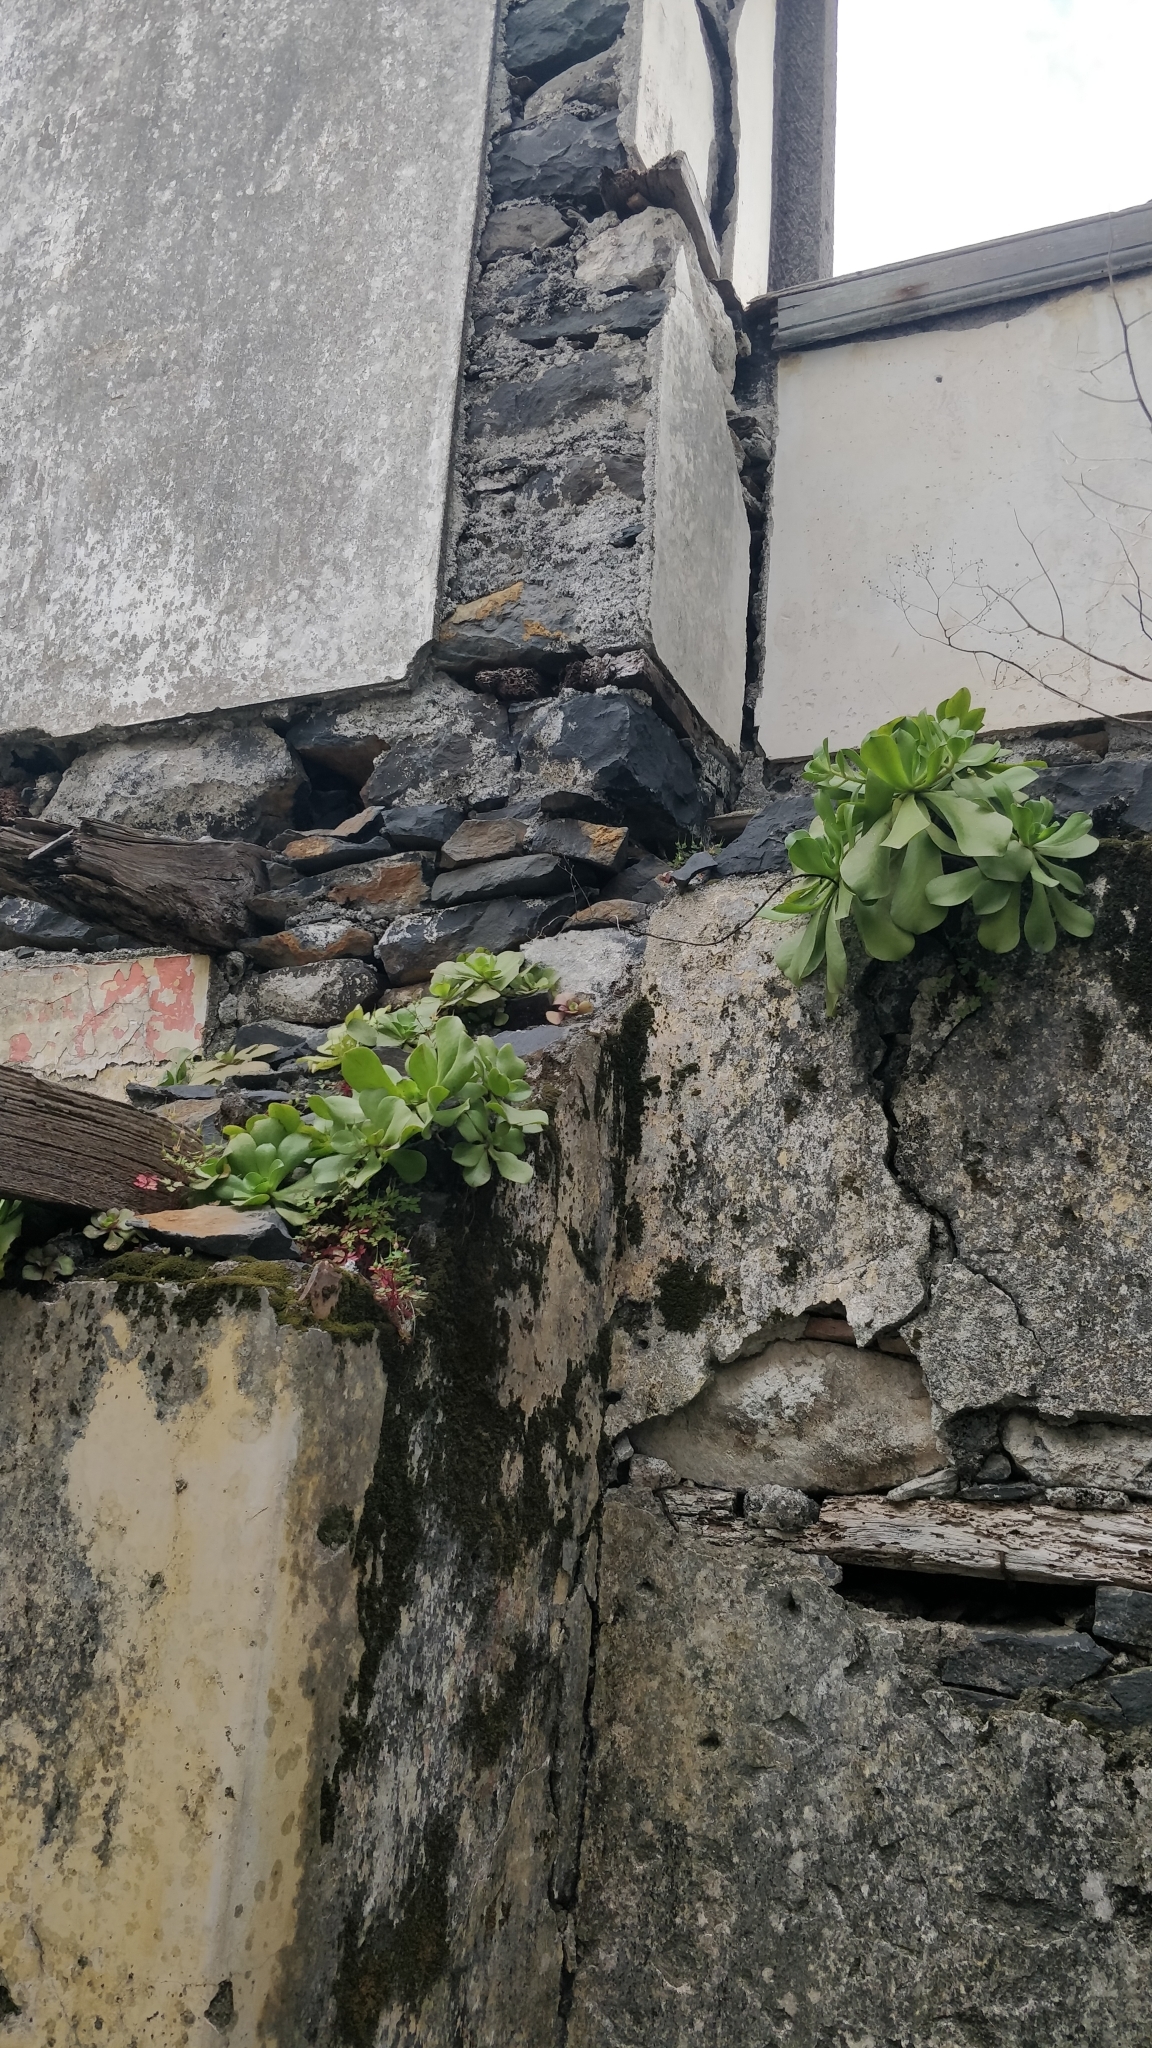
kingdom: Plantae
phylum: Tracheophyta
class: Magnoliopsida
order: Saxifragales
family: Crassulaceae
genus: Aeonium
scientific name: Aeonium glutinosum
